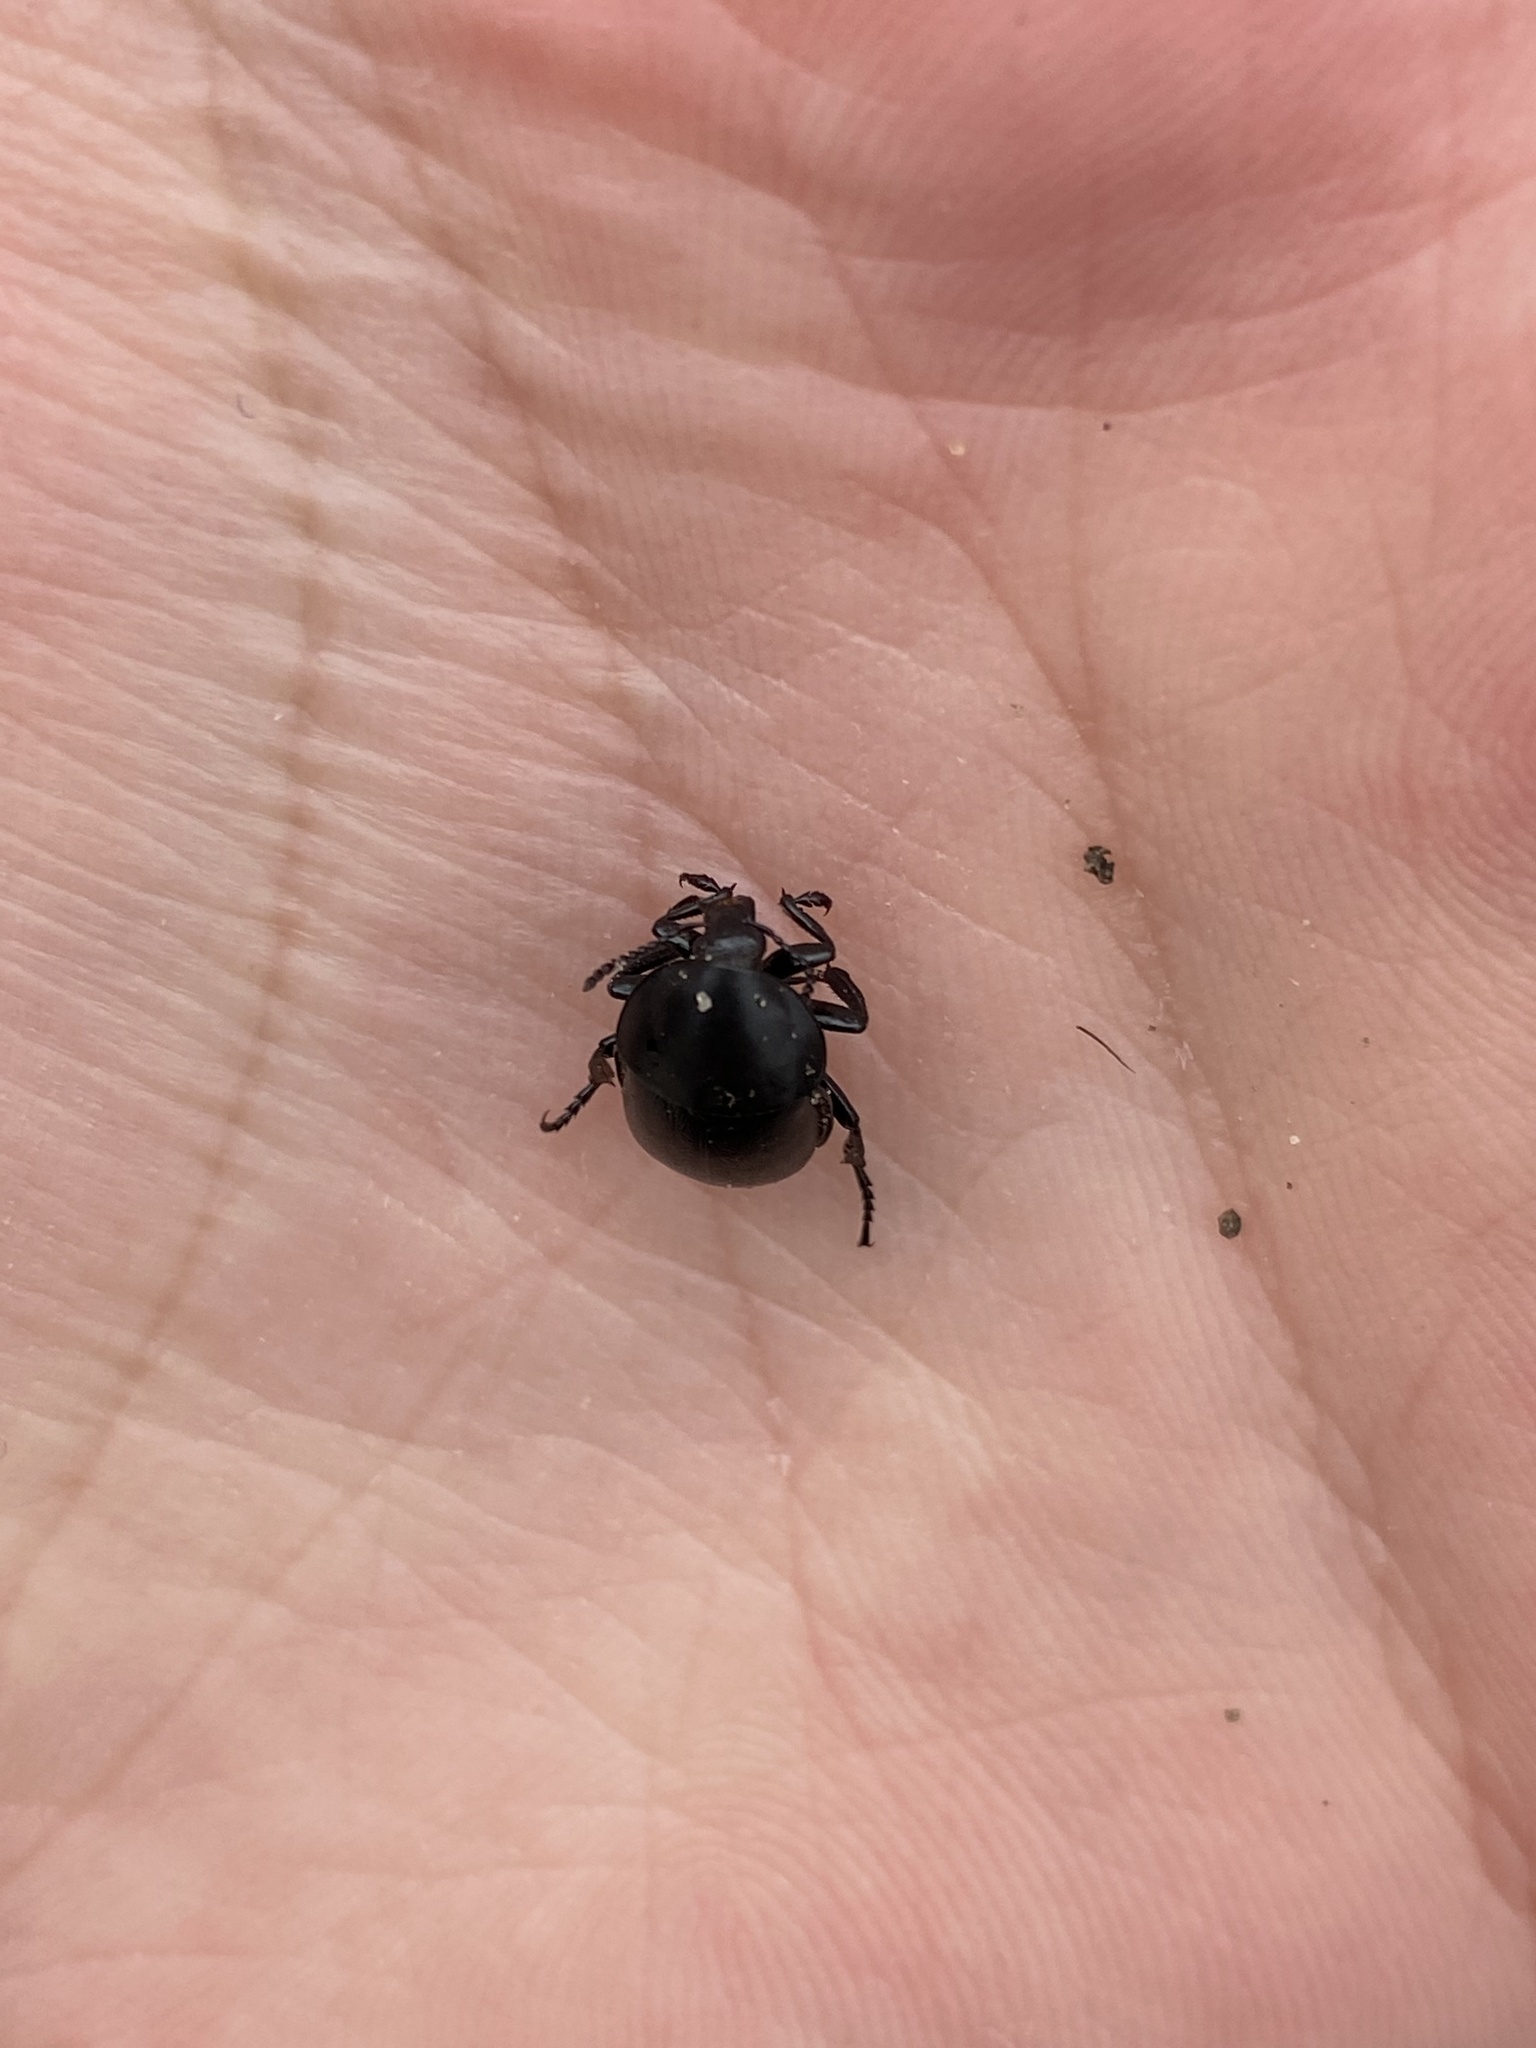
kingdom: Animalia
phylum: Arthropoda
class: Insecta
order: Coleoptera
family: Staphylinidae
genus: Silpha
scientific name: Silpha laevigata
